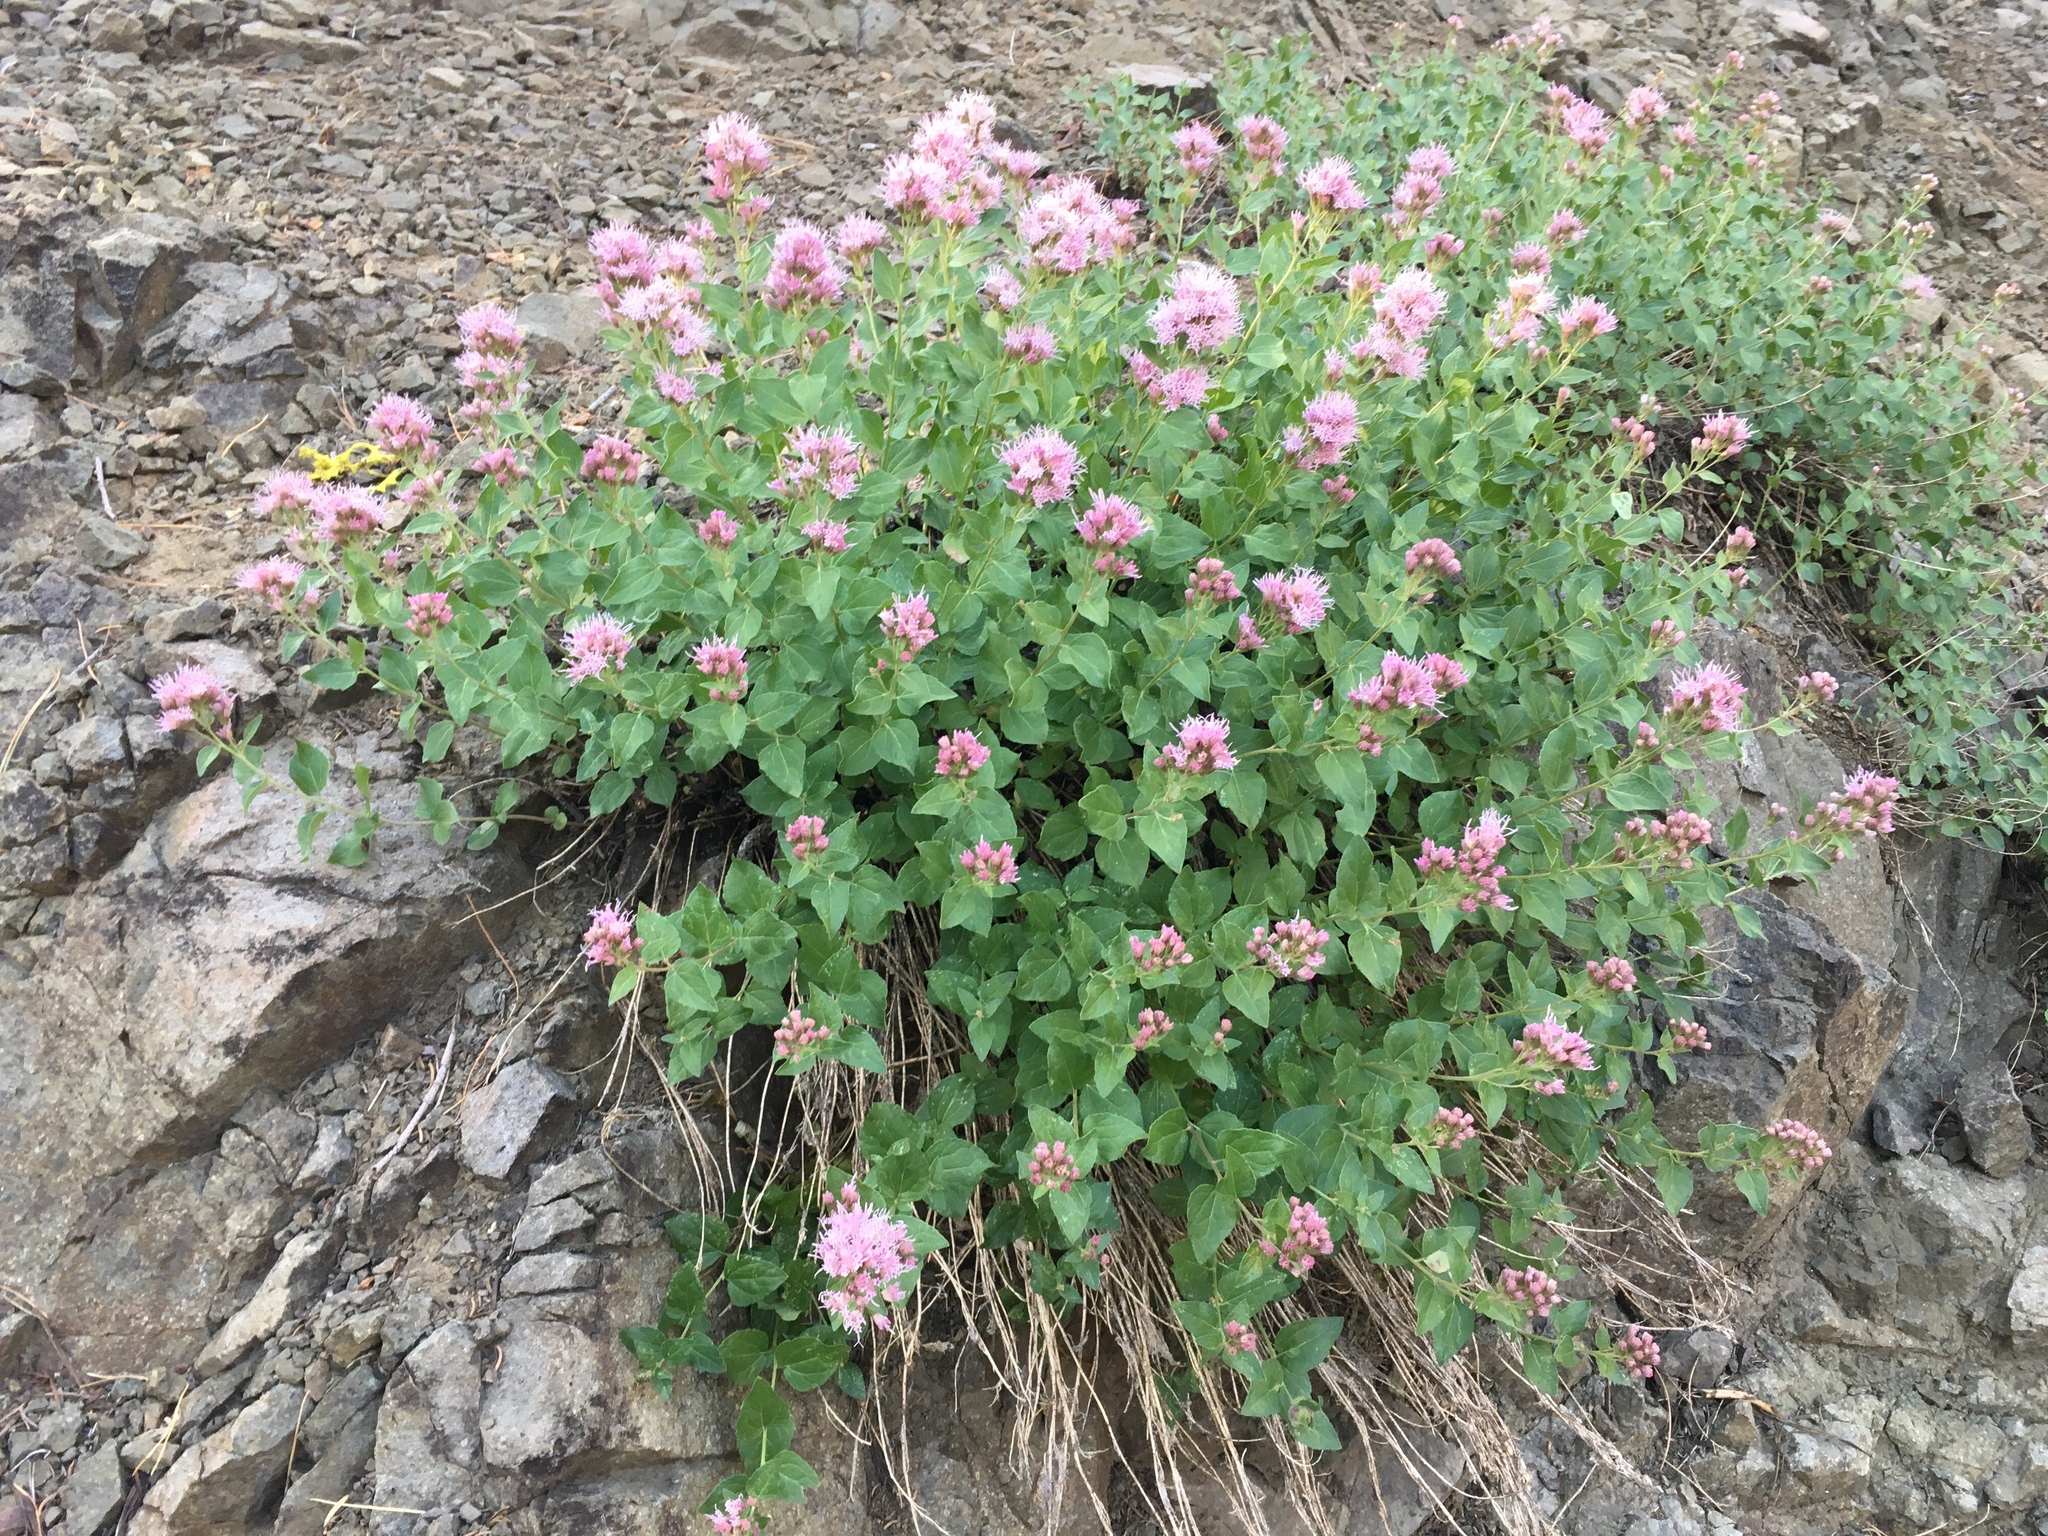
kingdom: Plantae
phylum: Tracheophyta
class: Magnoliopsida
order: Asterales
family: Asteraceae
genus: Ageratina
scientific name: Ageratina occidentalis
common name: Western snakeroot
